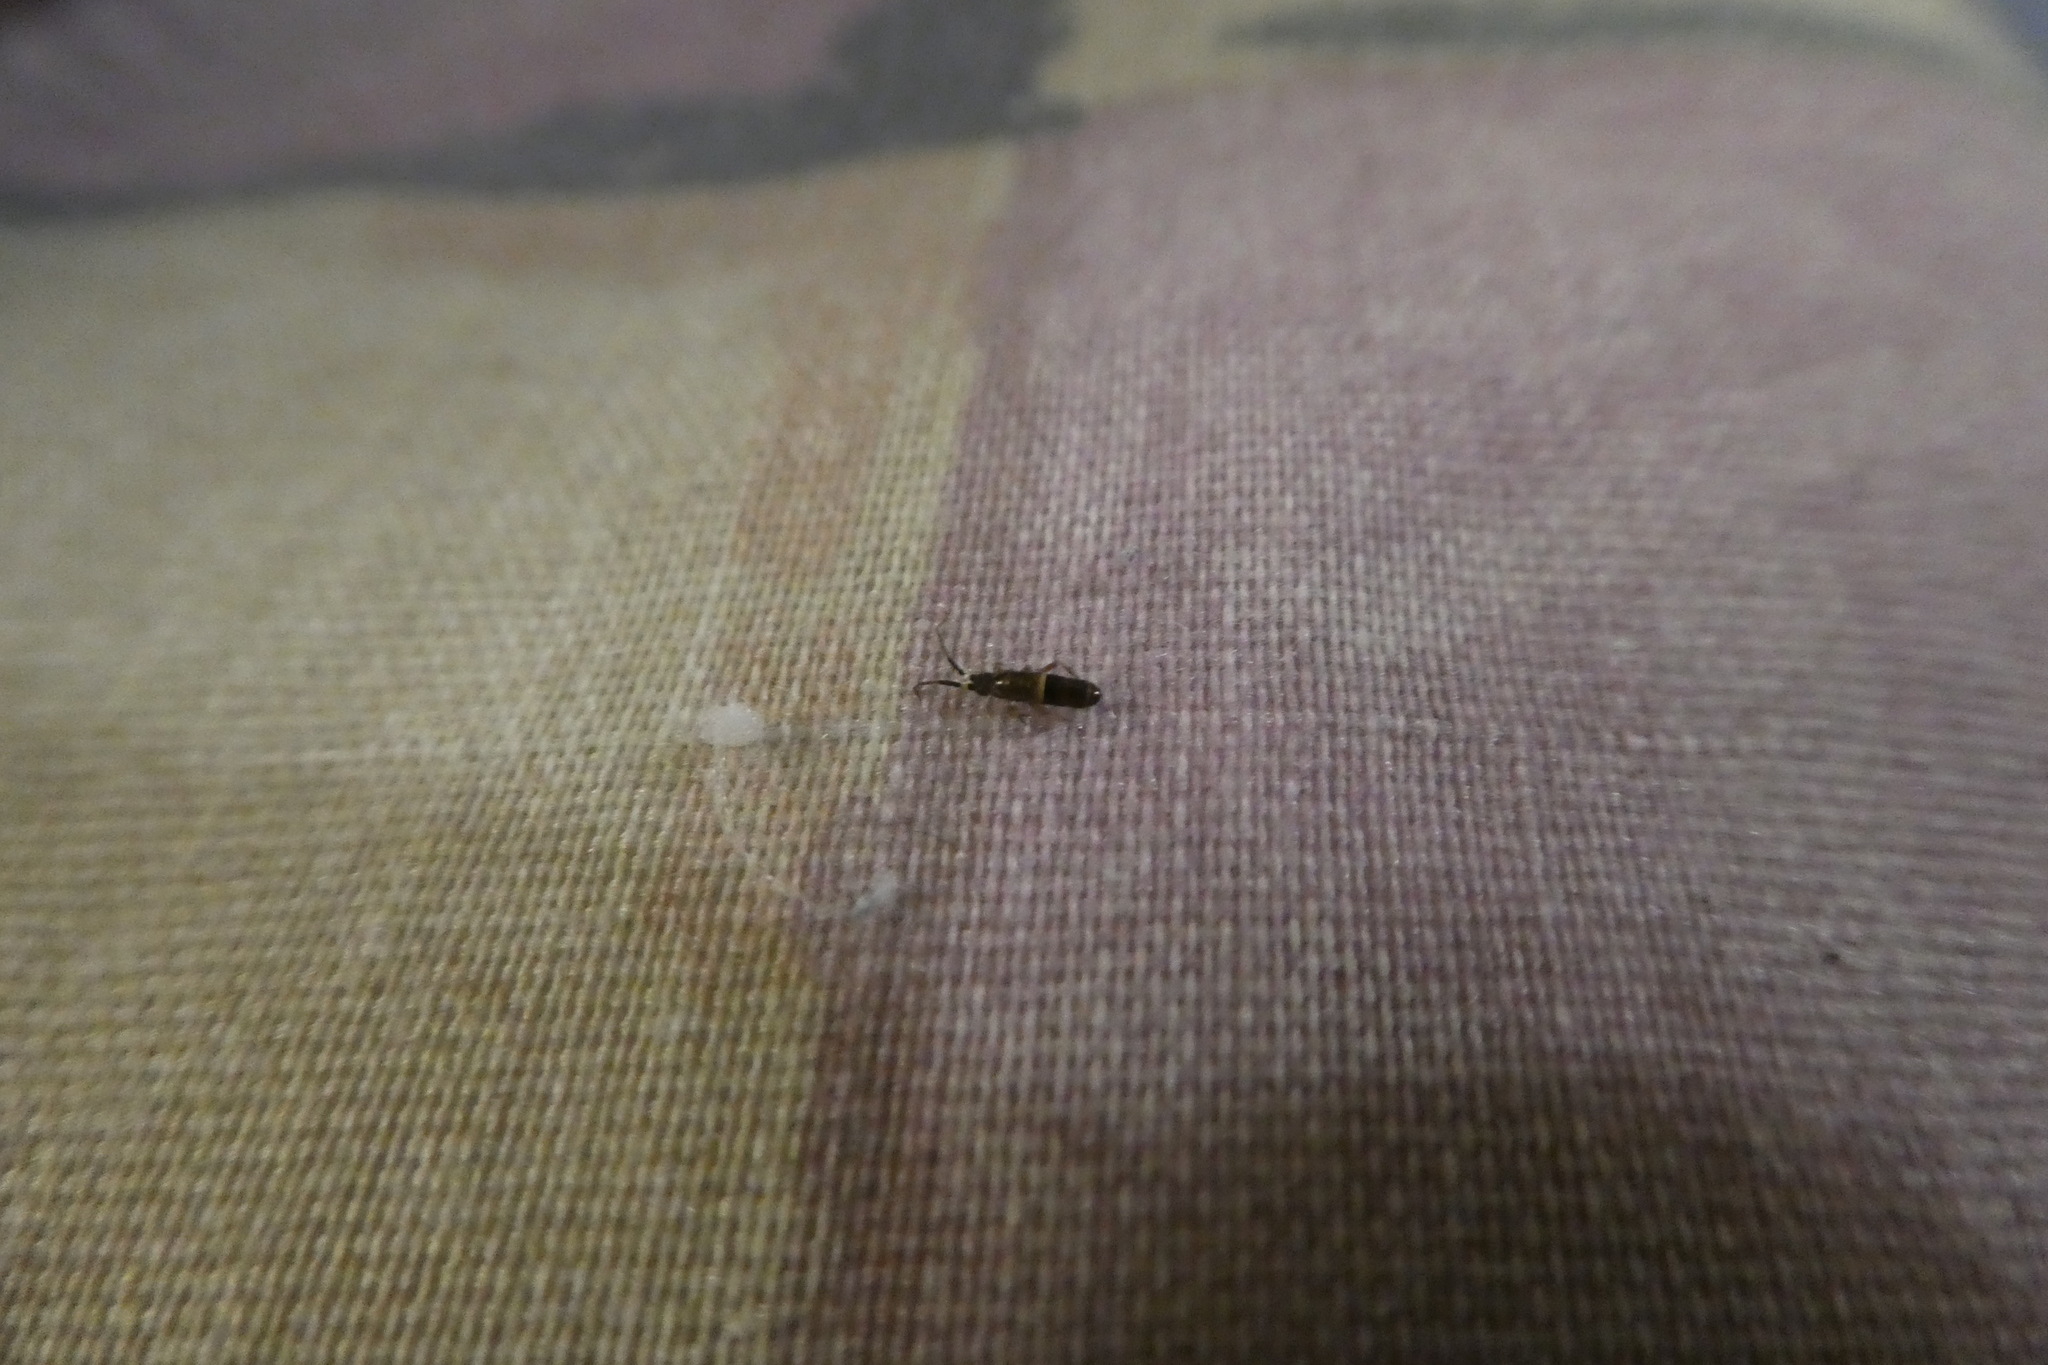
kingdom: Animalia
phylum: Arthropoda
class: Collembola
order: Entomobryomorpha
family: Orchesellidae
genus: Orchesella
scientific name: Orchesella cincta
